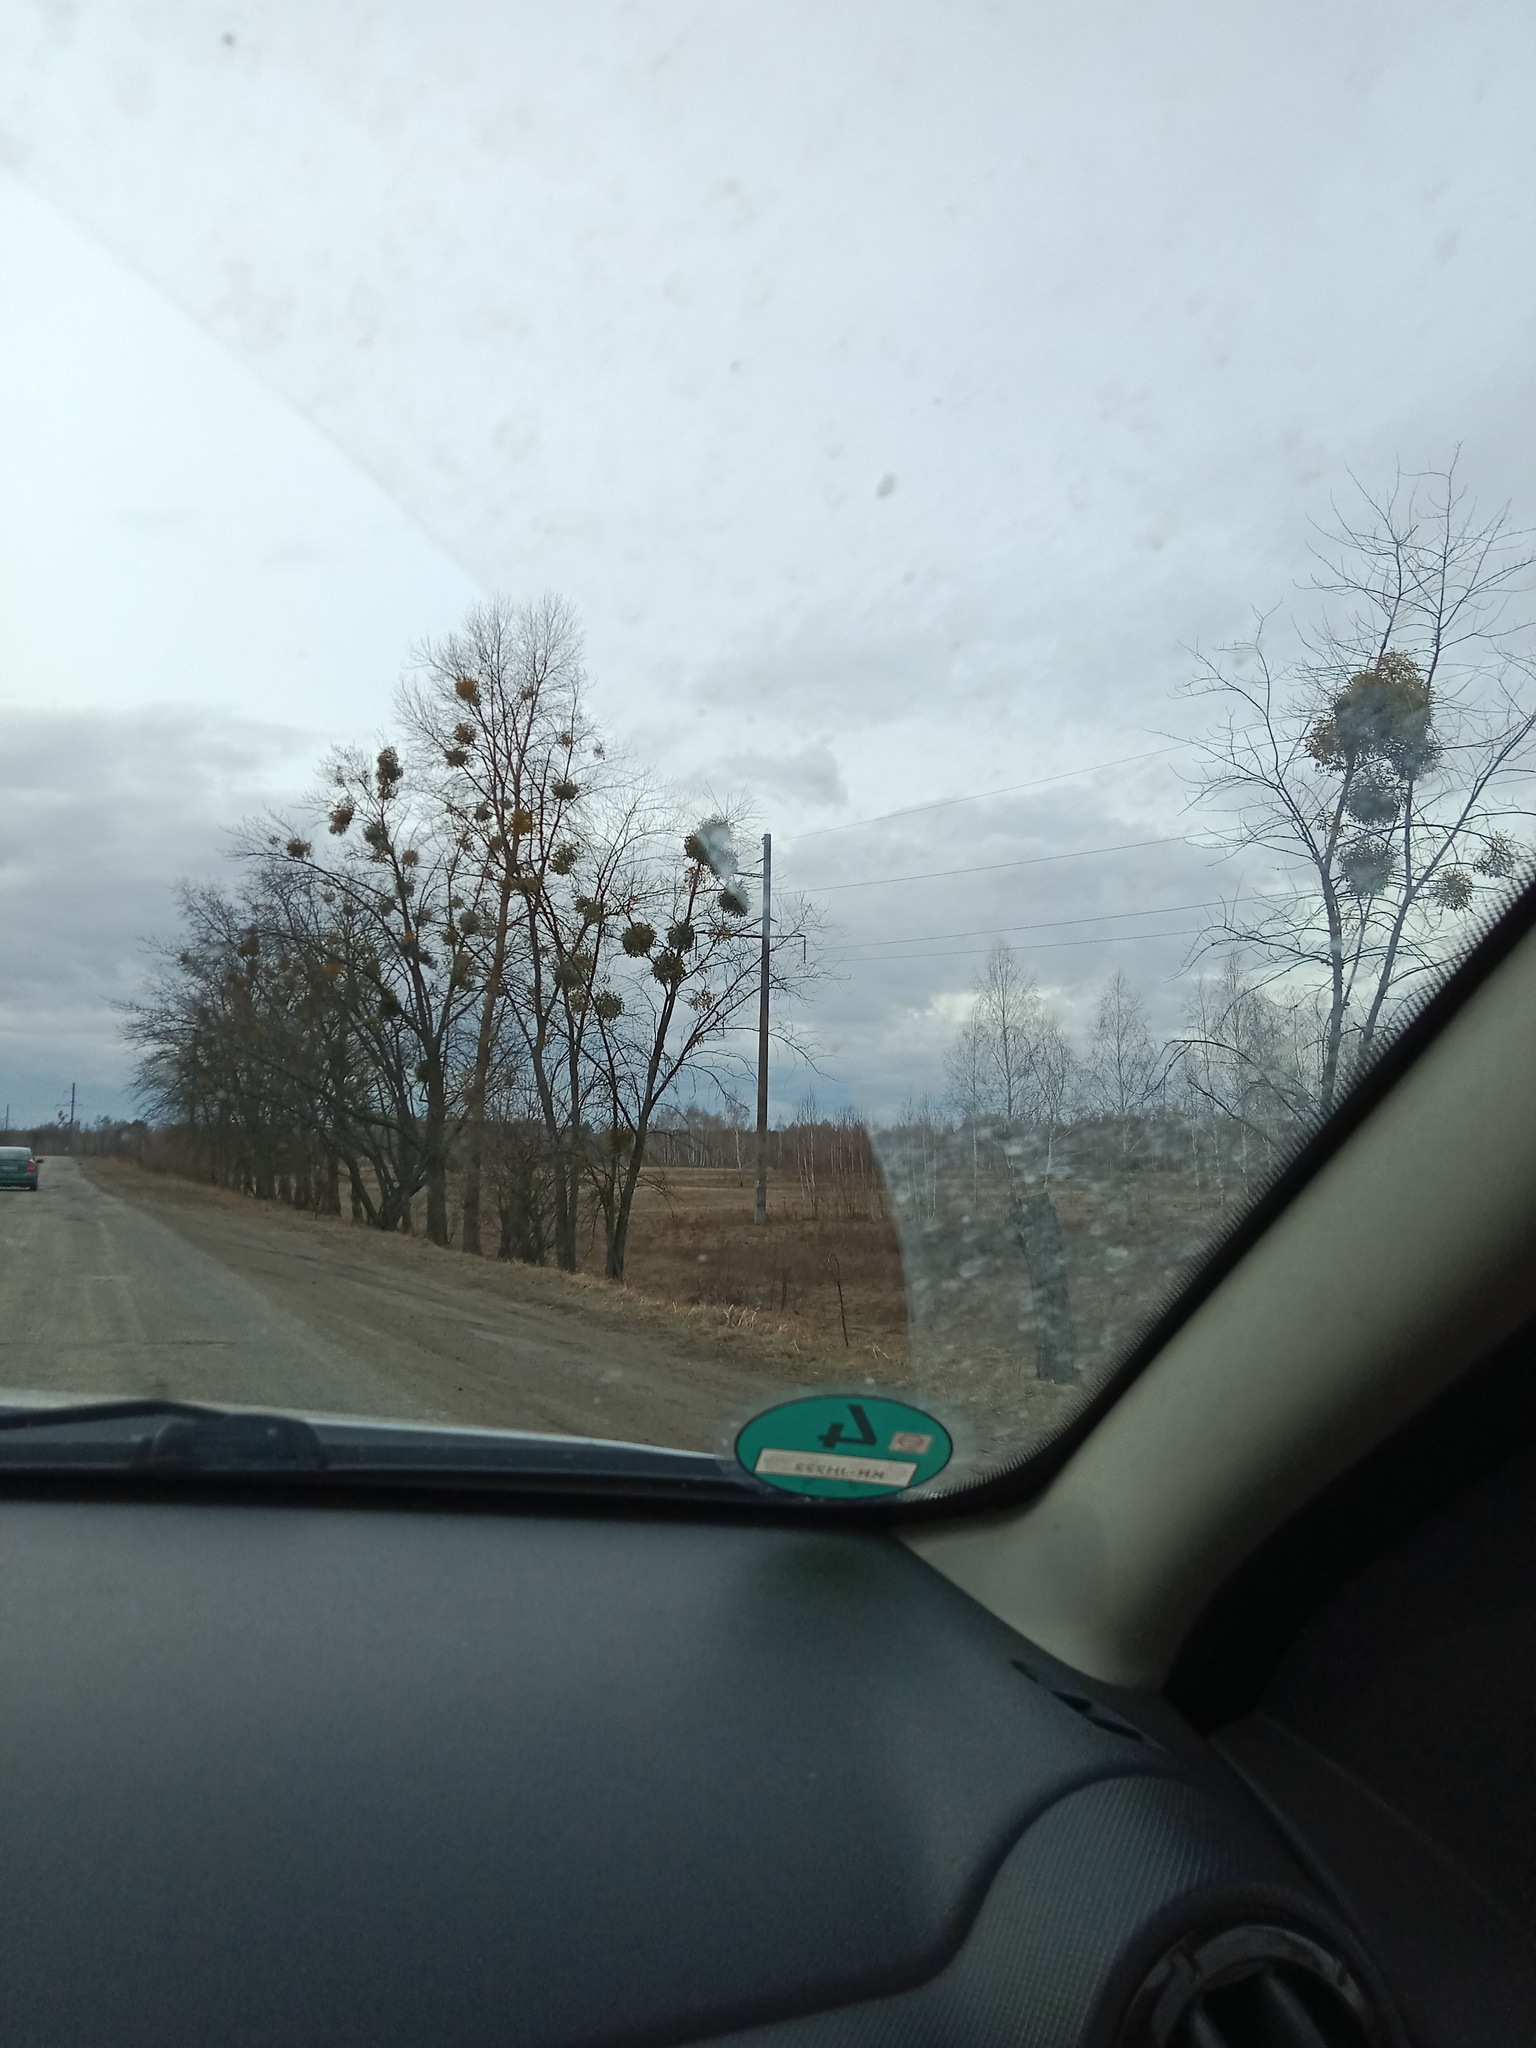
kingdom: Plantae
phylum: Tracheophyta
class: Magnoliopsida
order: Santalales
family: Viscaceae
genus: Viscum
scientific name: Viscum album
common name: Mistletoe
